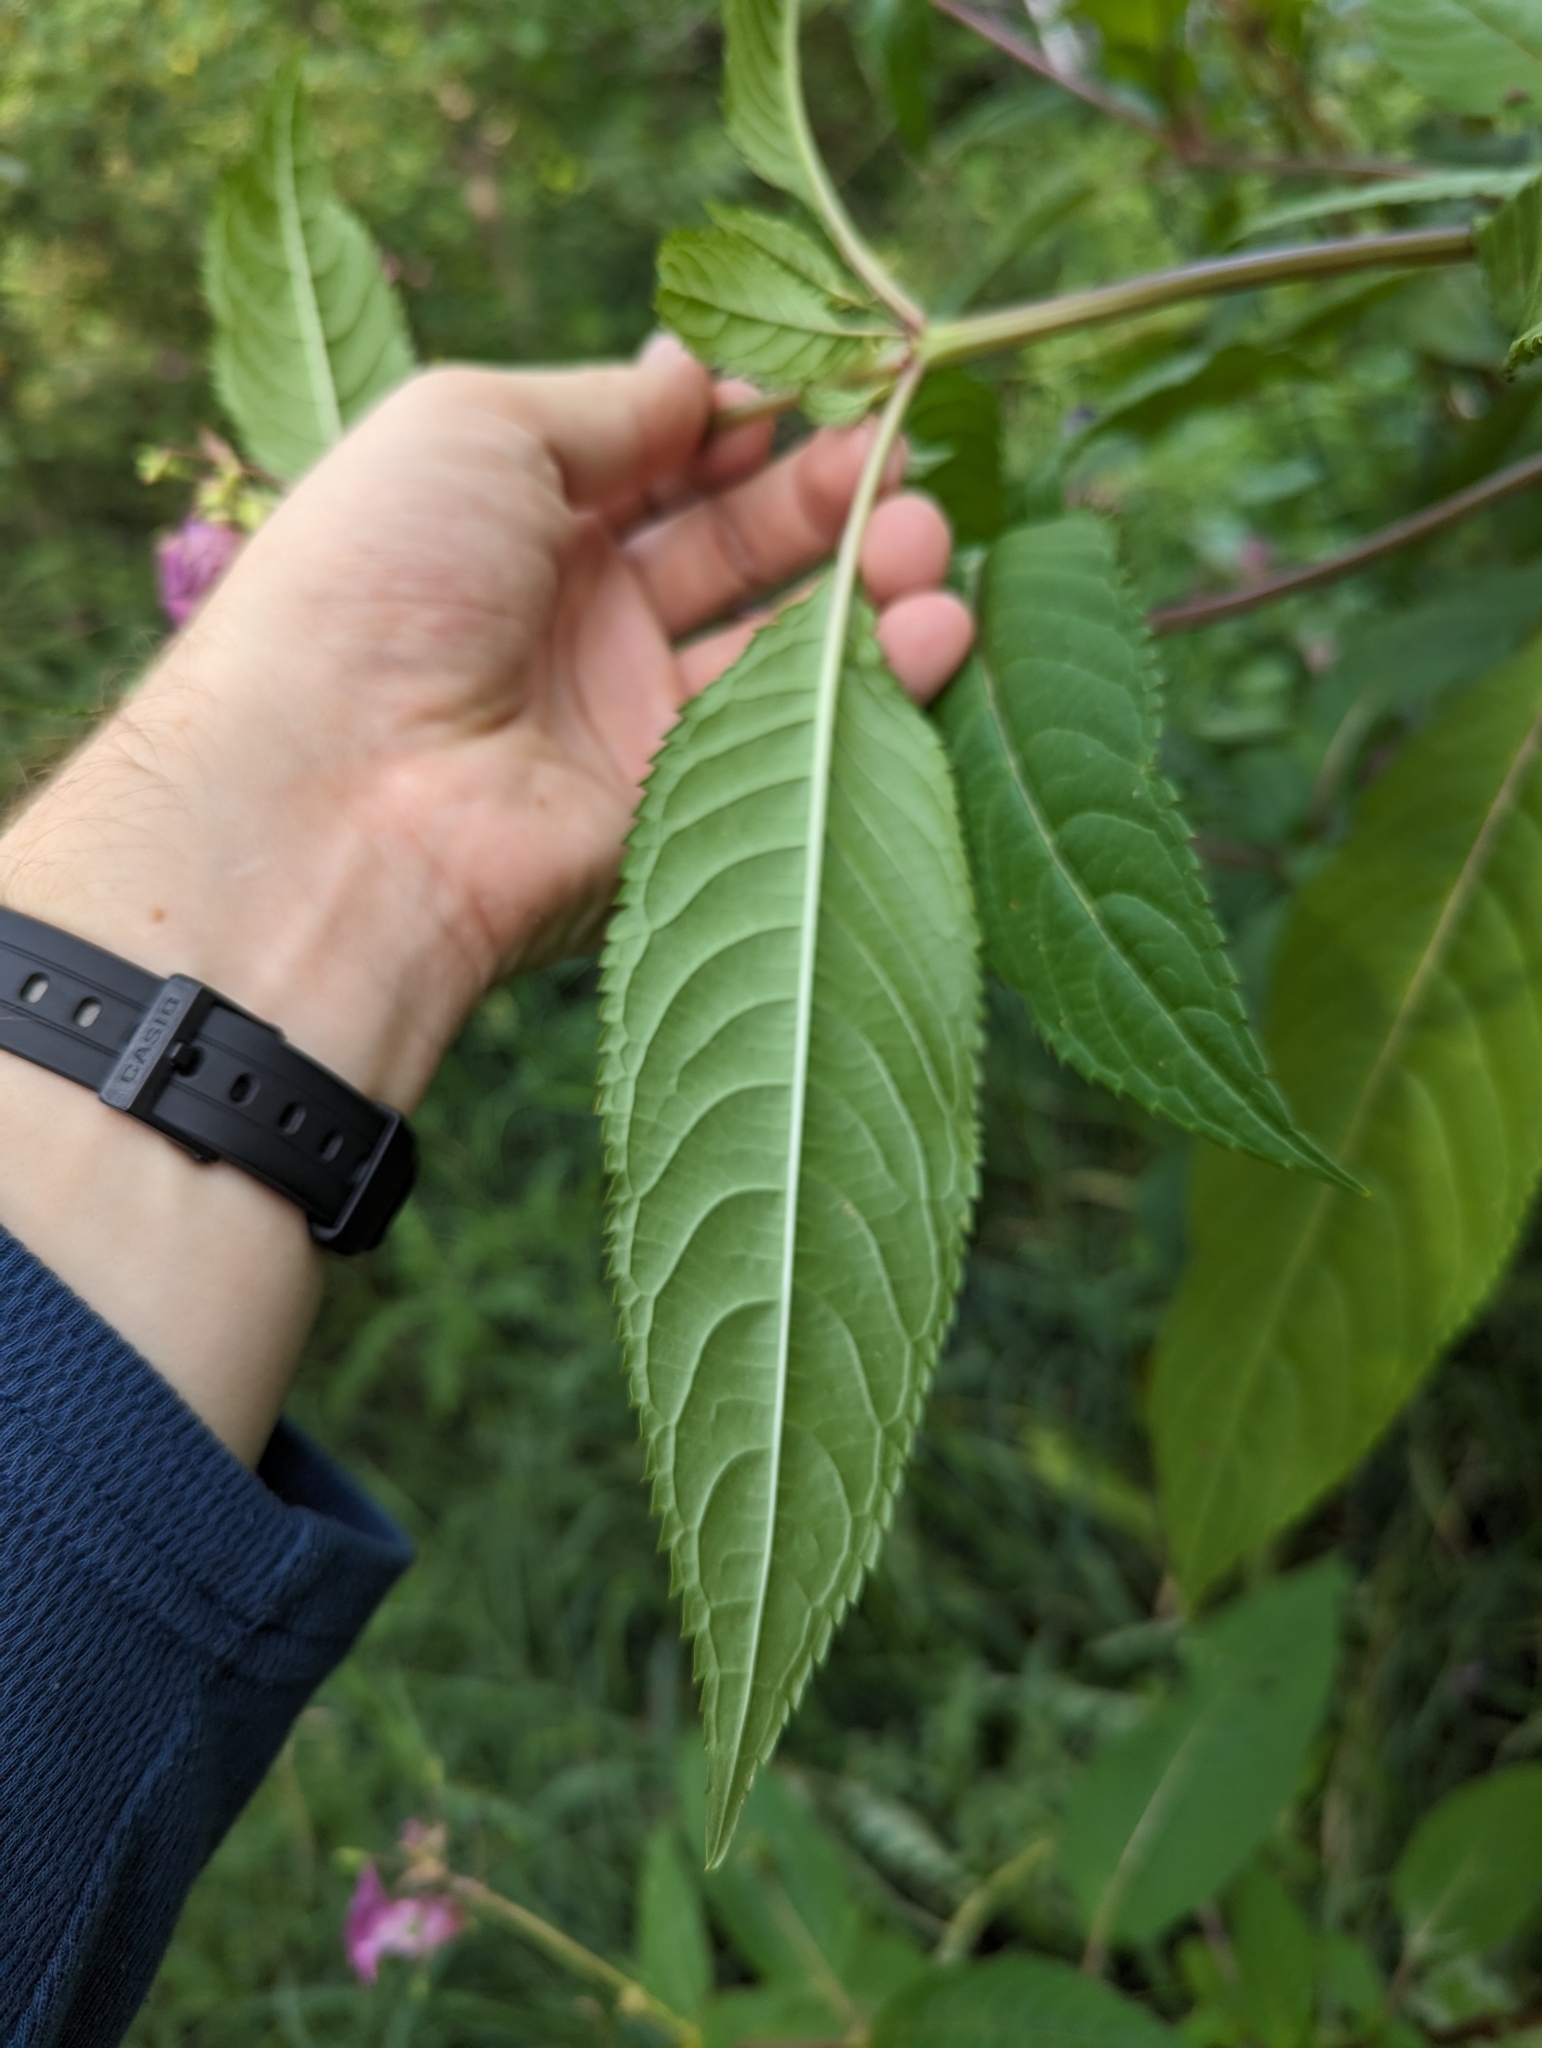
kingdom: Plantae
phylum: Tracheophyta
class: Magnoliopsida
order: Ericales
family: Balsaminaceae
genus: Impatiens
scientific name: Impatiens glandulifera
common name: Himalayan balsam
